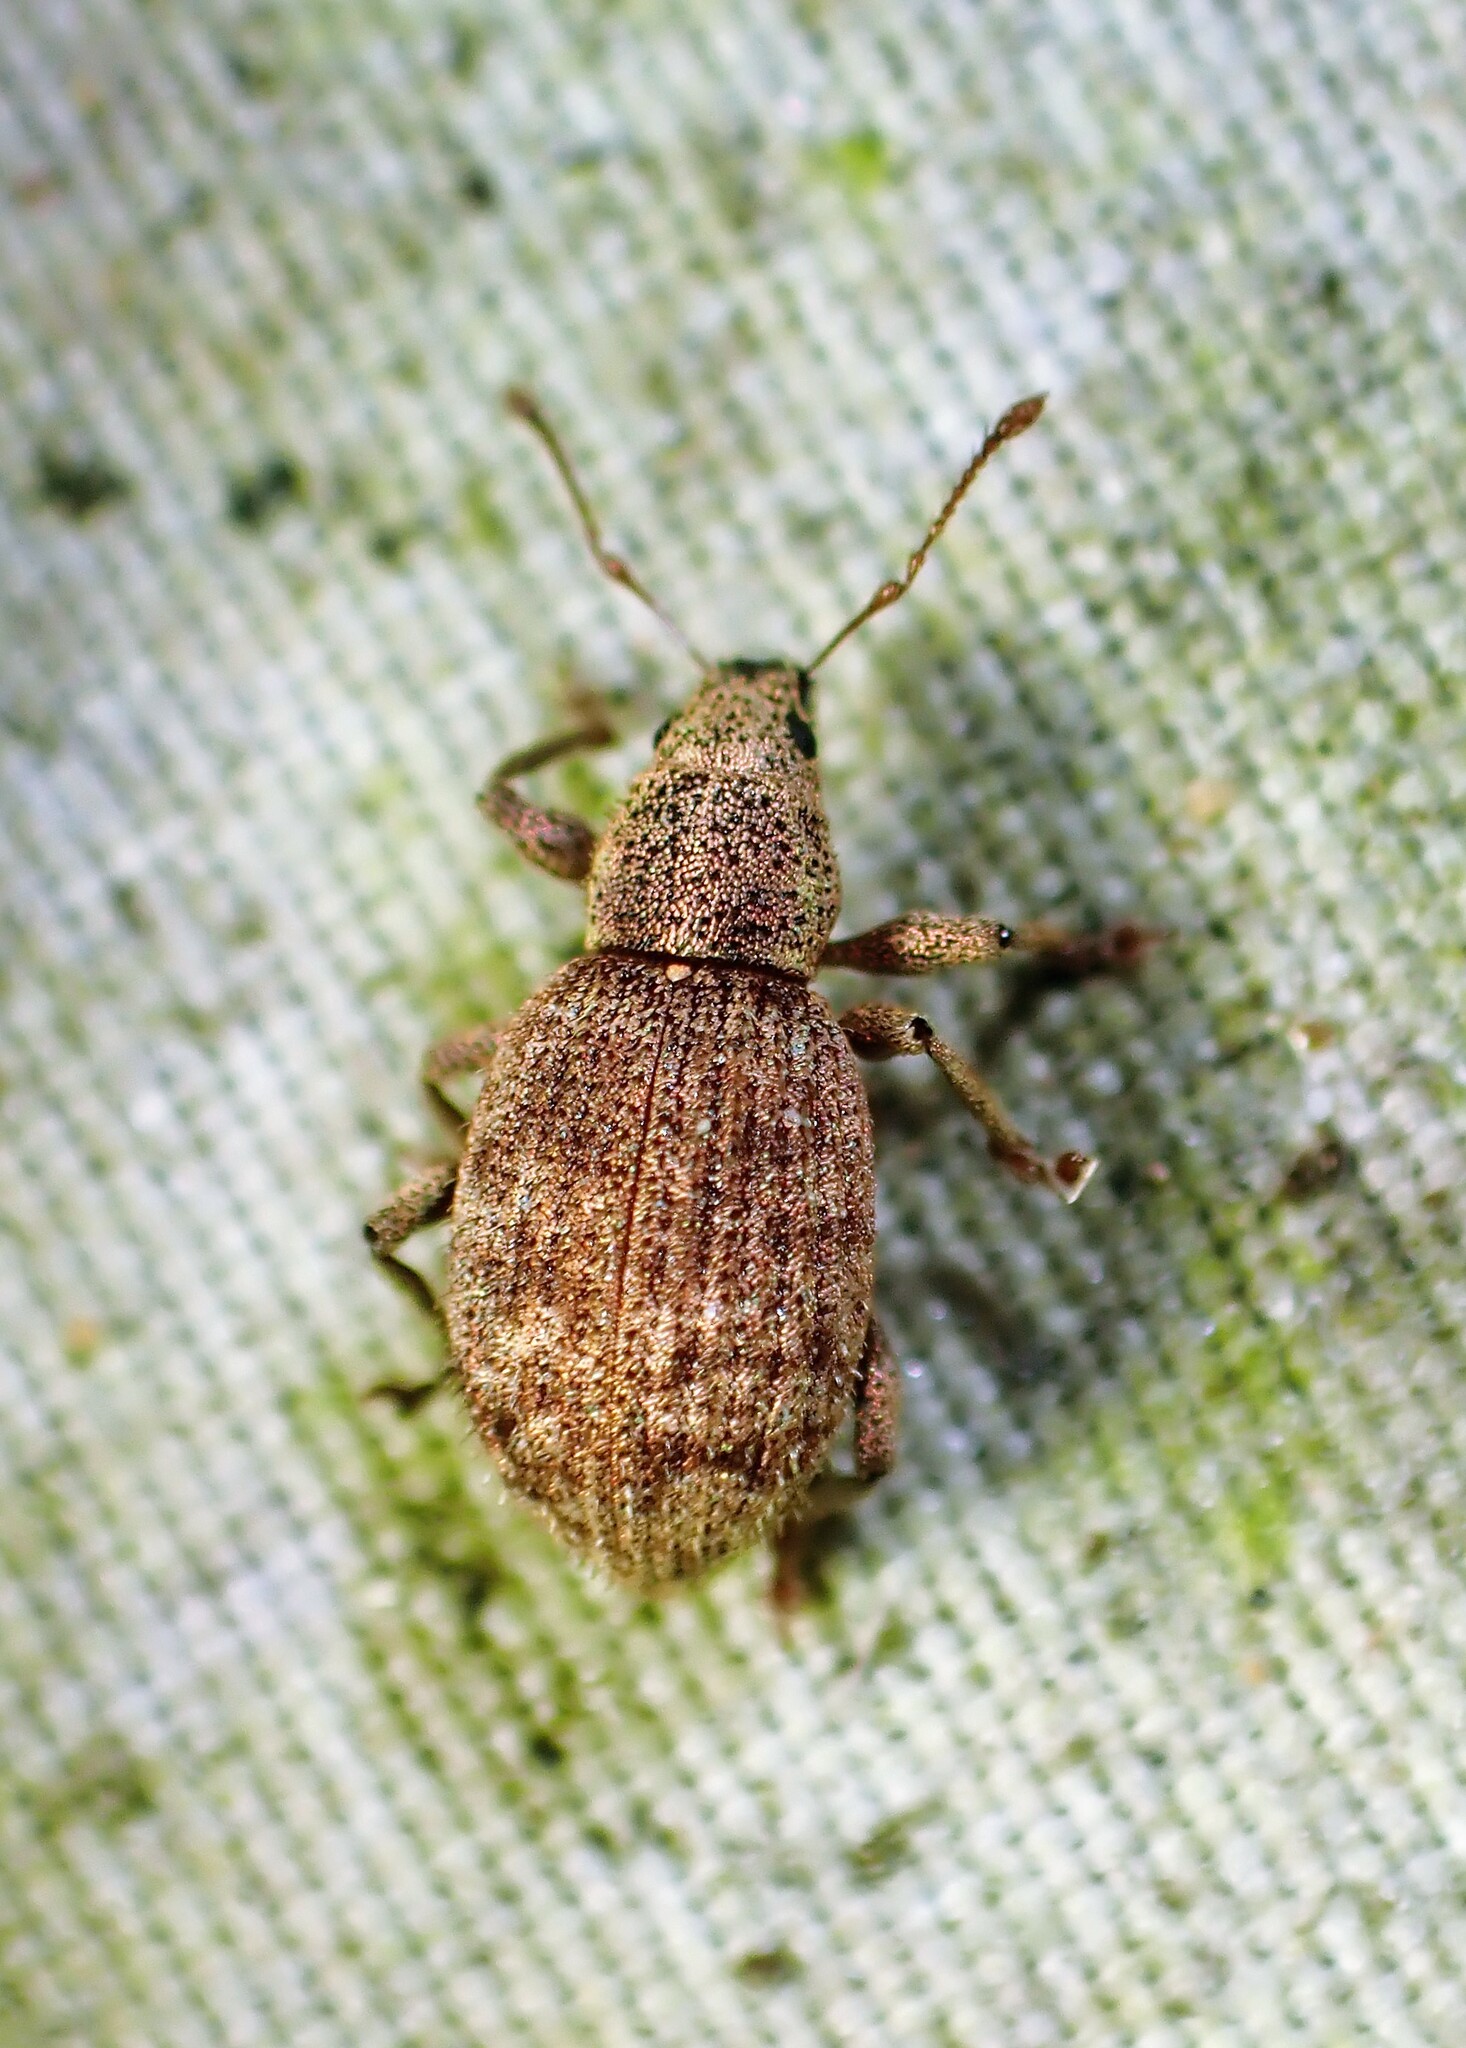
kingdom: Animalia
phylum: Arthropoda
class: Insecta
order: Coleoptera
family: Curculionidae
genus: Sciaphilus
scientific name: Sciaphilus asperatus
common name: Weevil
